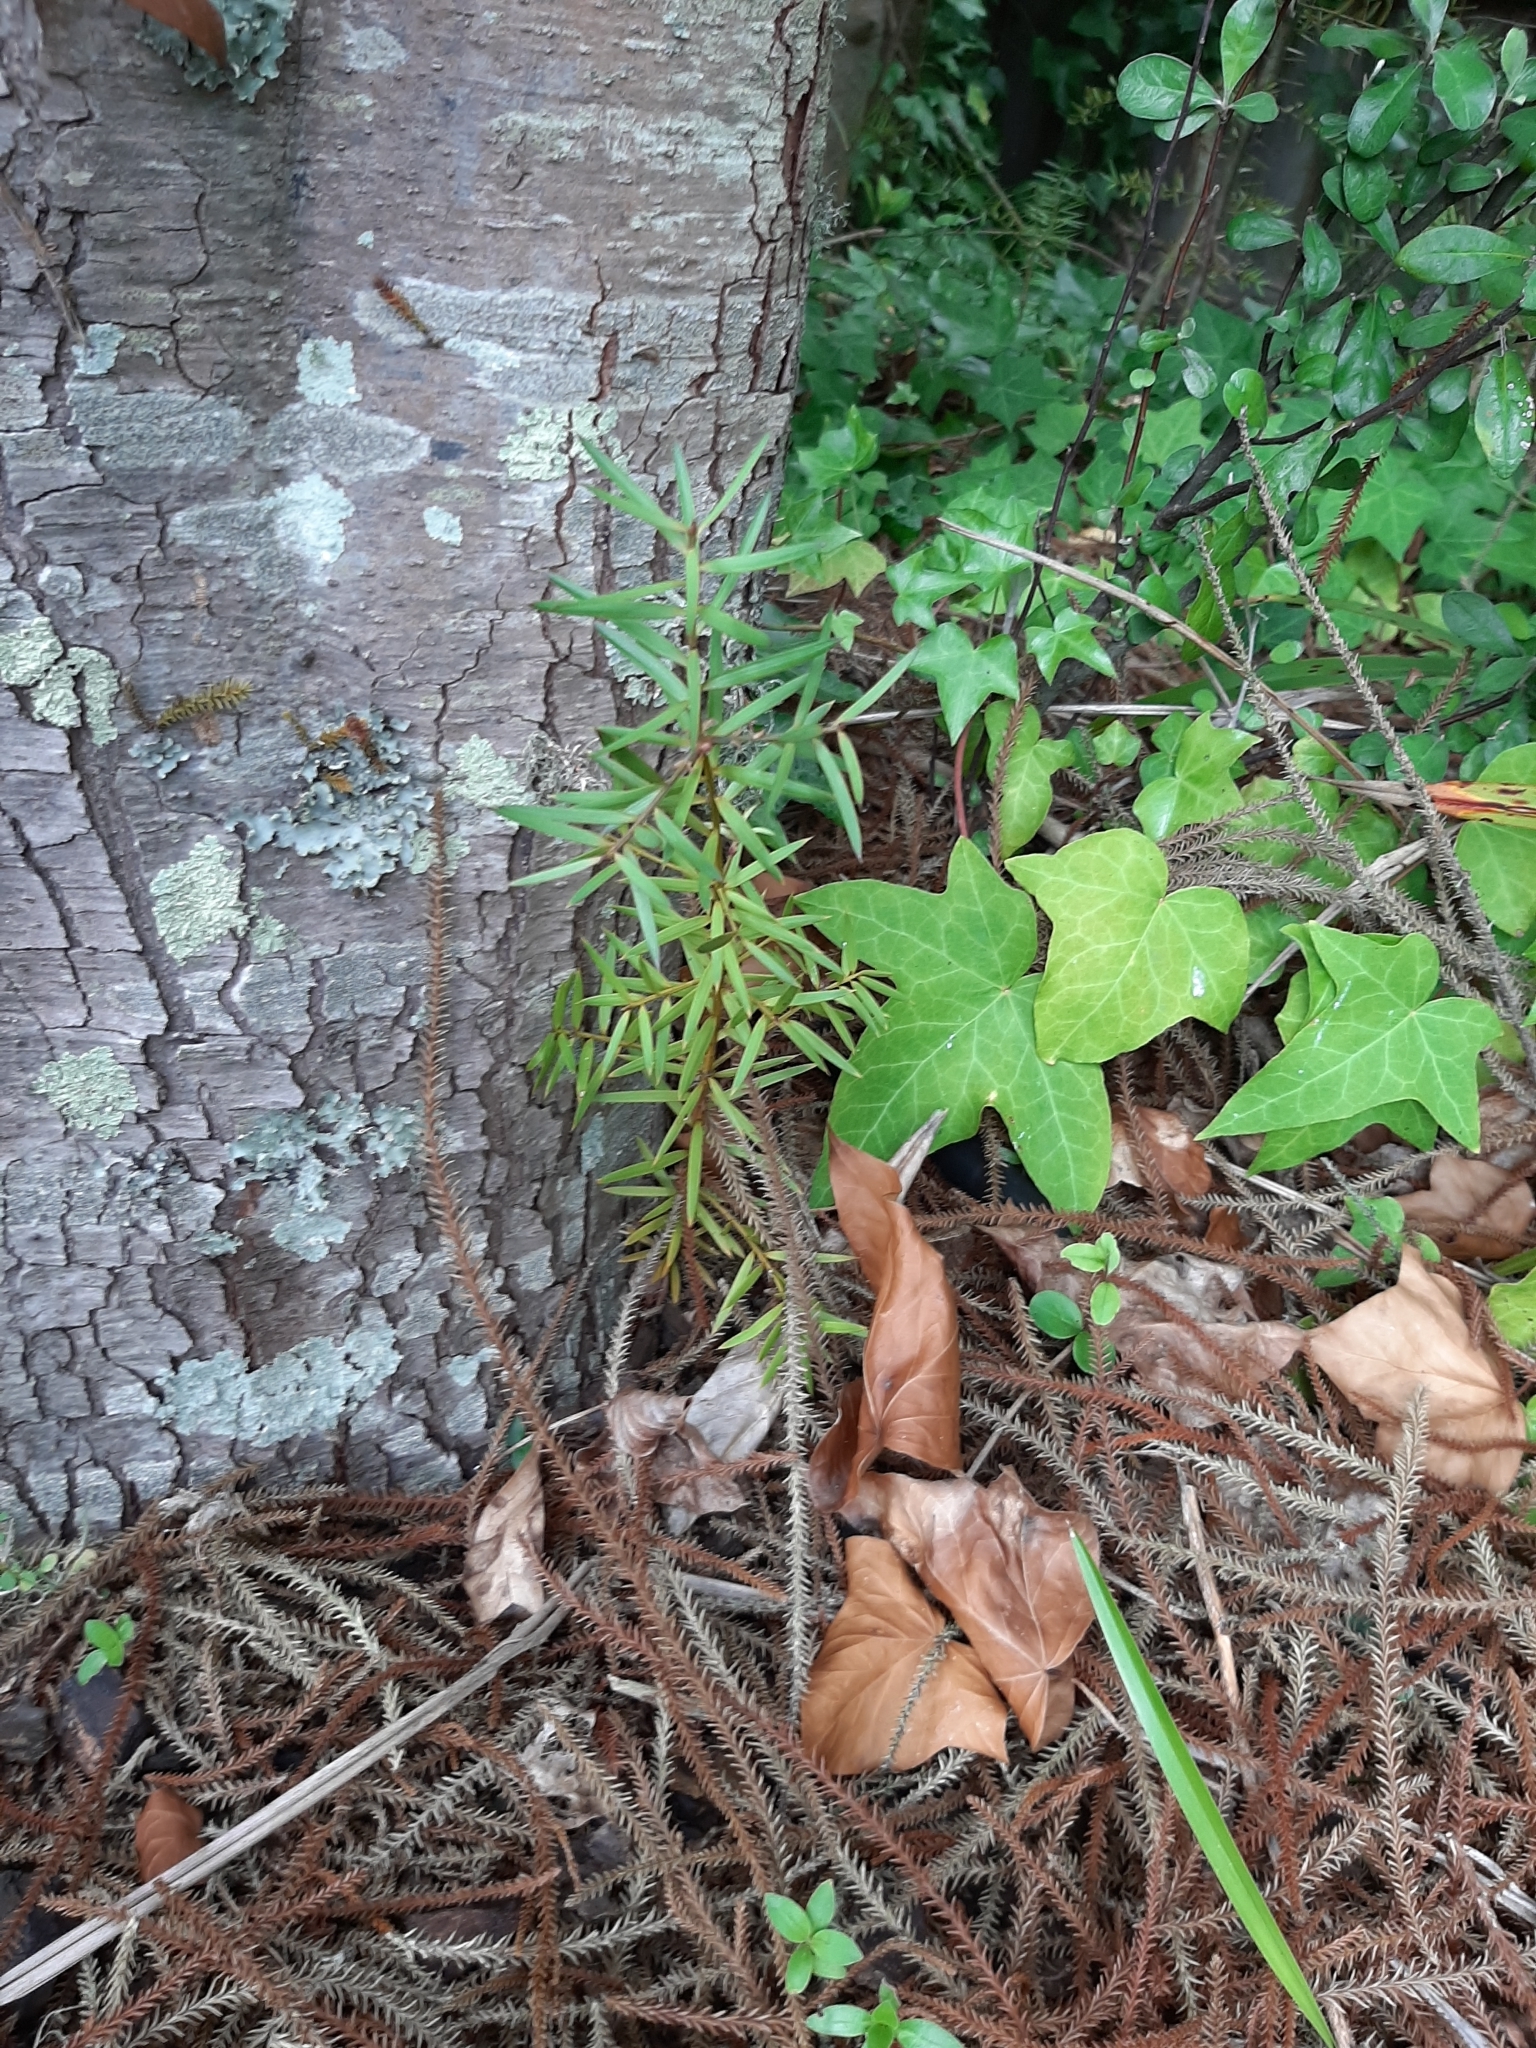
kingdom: Plantae
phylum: Tracheophyta
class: Pinopsida
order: Pinales
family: Podocarpaceae
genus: Podocarpus
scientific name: Podocarpus totara
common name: Totara
